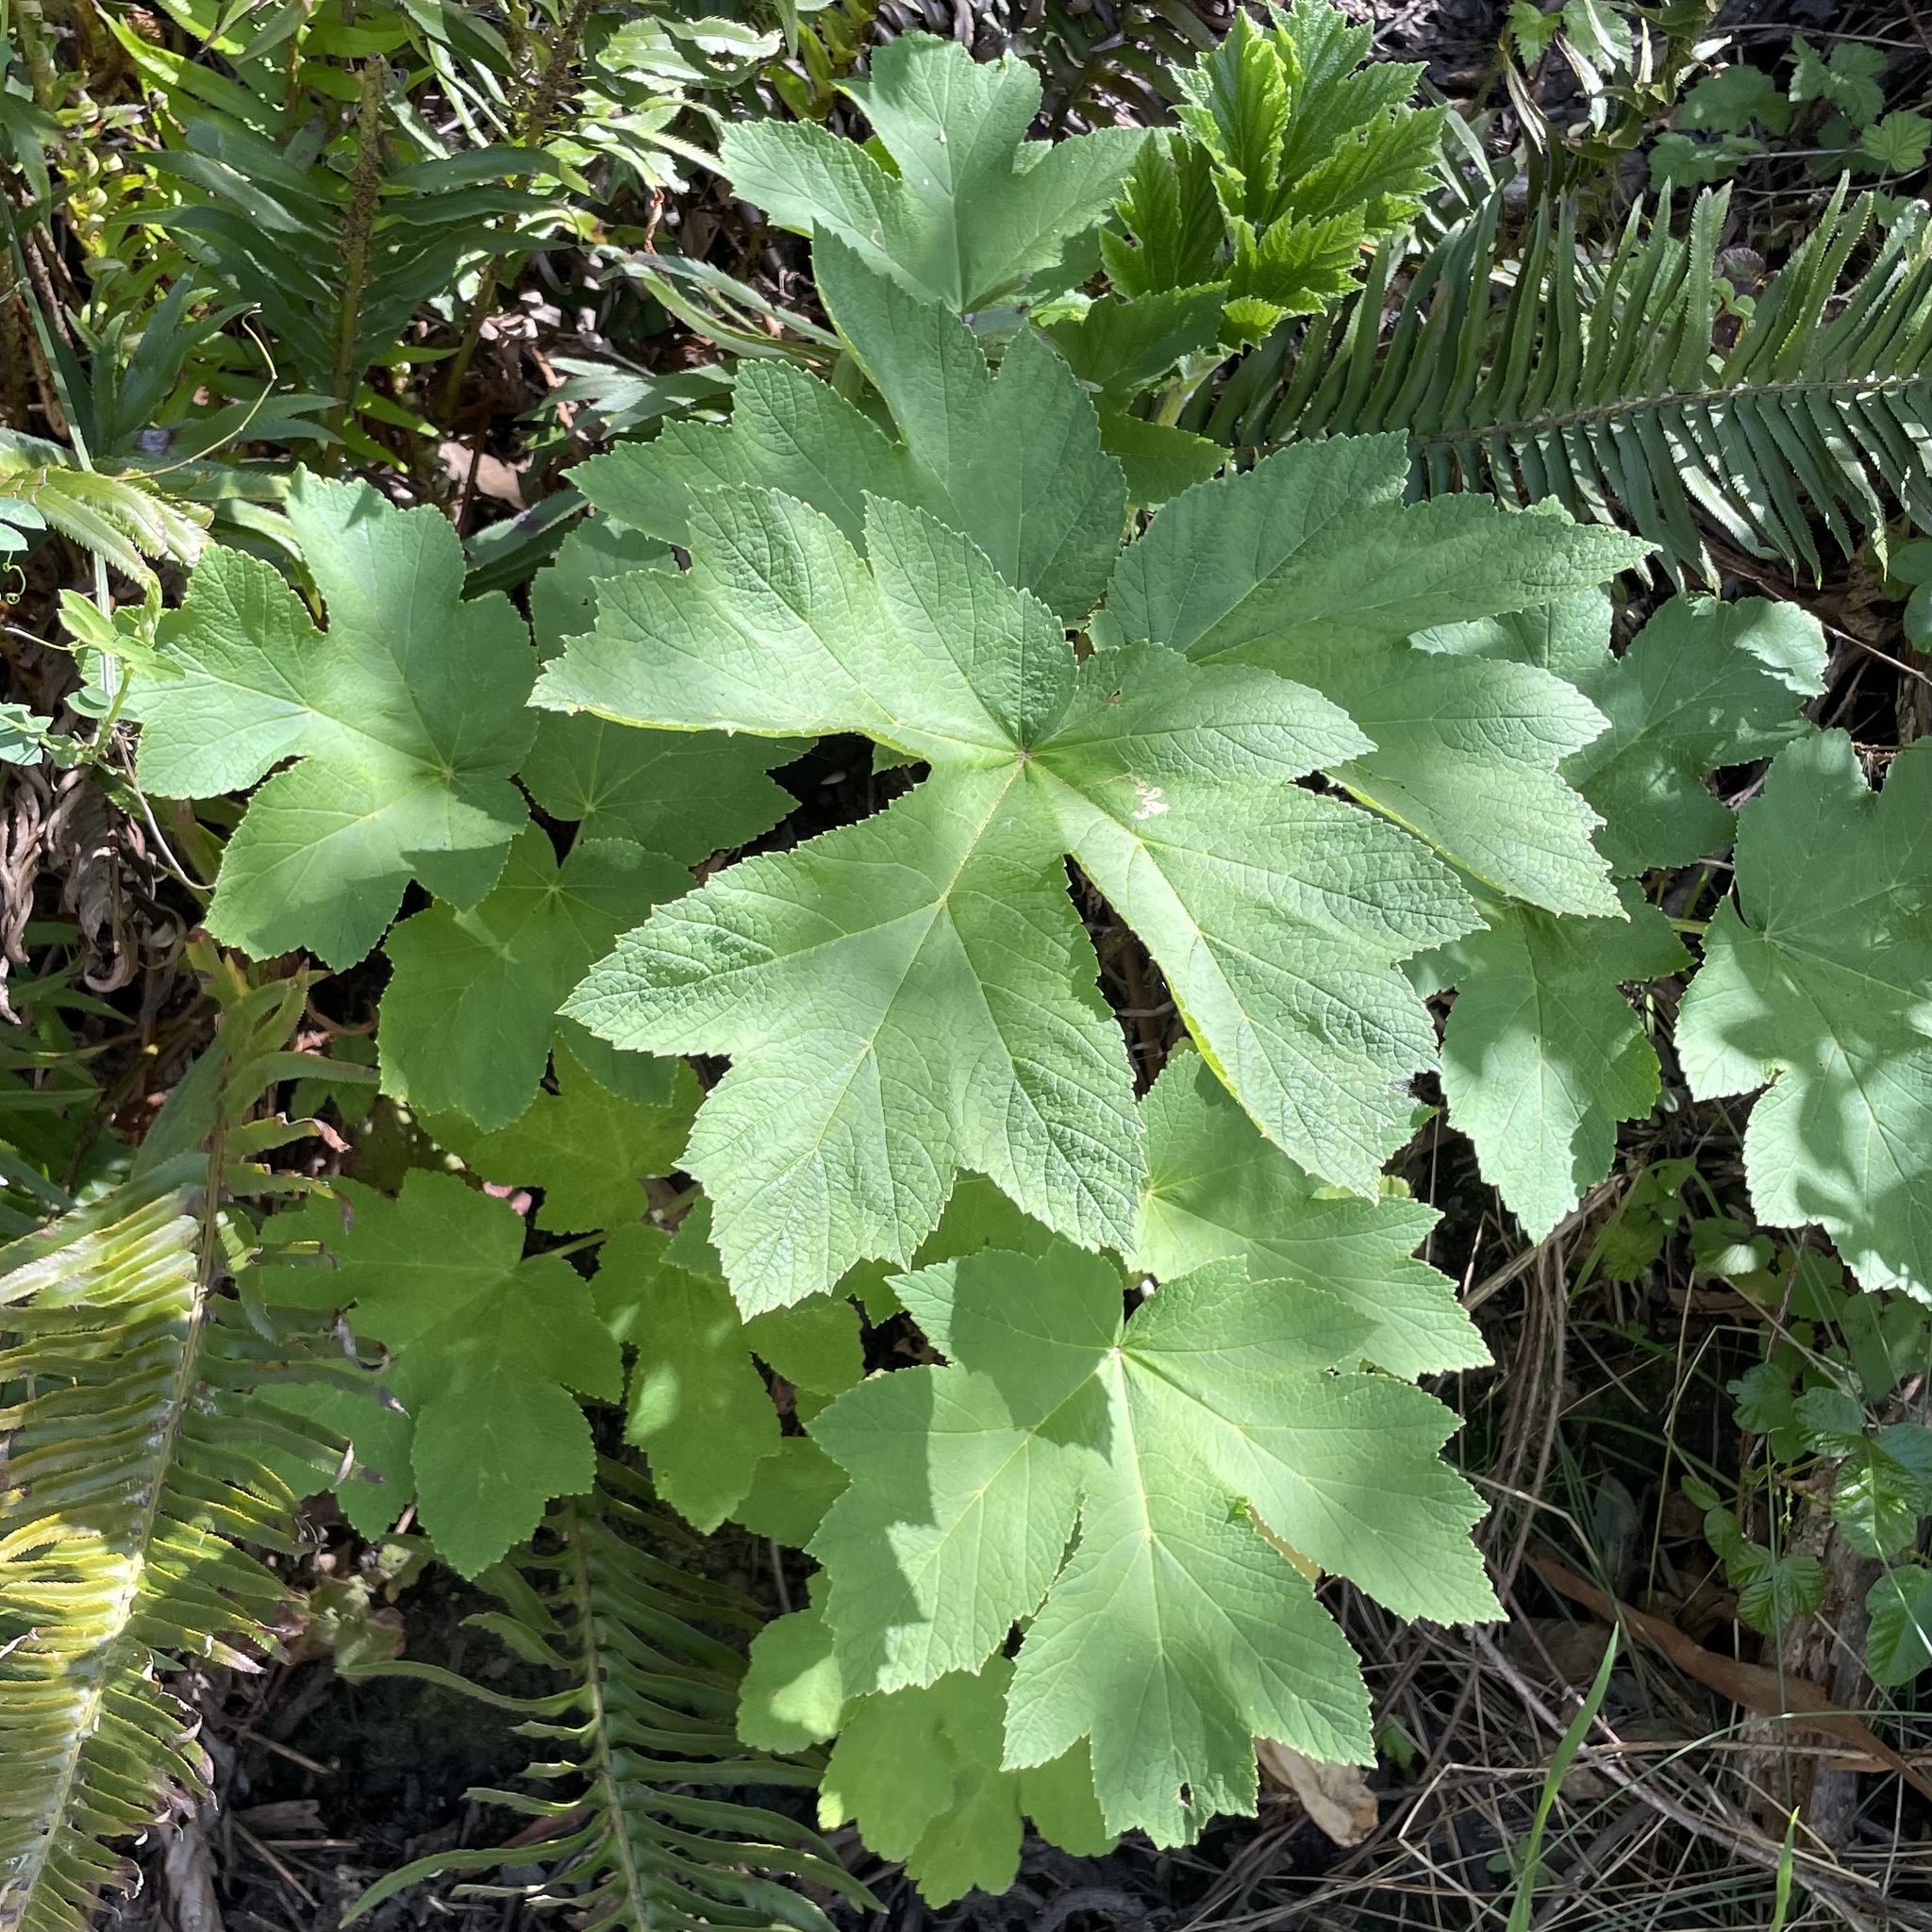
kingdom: Plantae
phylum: Tracheophyta
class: Magnoliopsida
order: Apiales
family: Apiaceae
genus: Heracleum
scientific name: Heracleum maximum
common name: American cow parsnip
